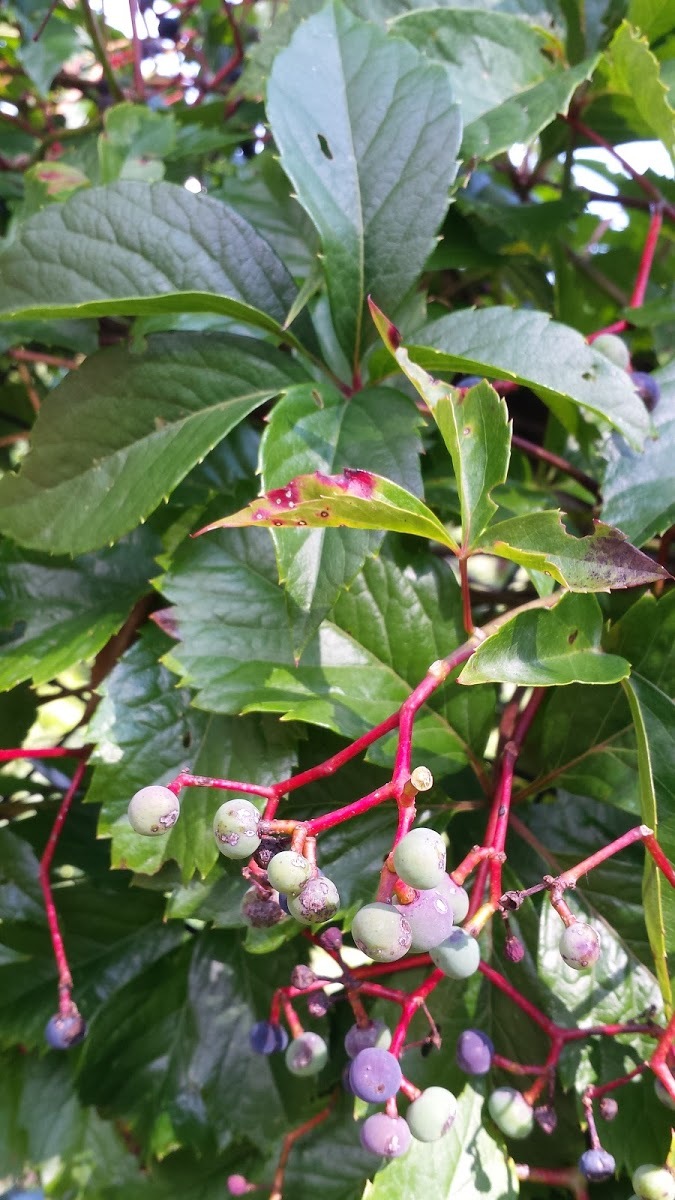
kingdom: Plantae
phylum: Tracheophyta
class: Magnoliopsida
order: Vitales
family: Vitaceae
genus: Parthenocissus
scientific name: Parthenocissus quinquefolia
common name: Virginia-creeper
